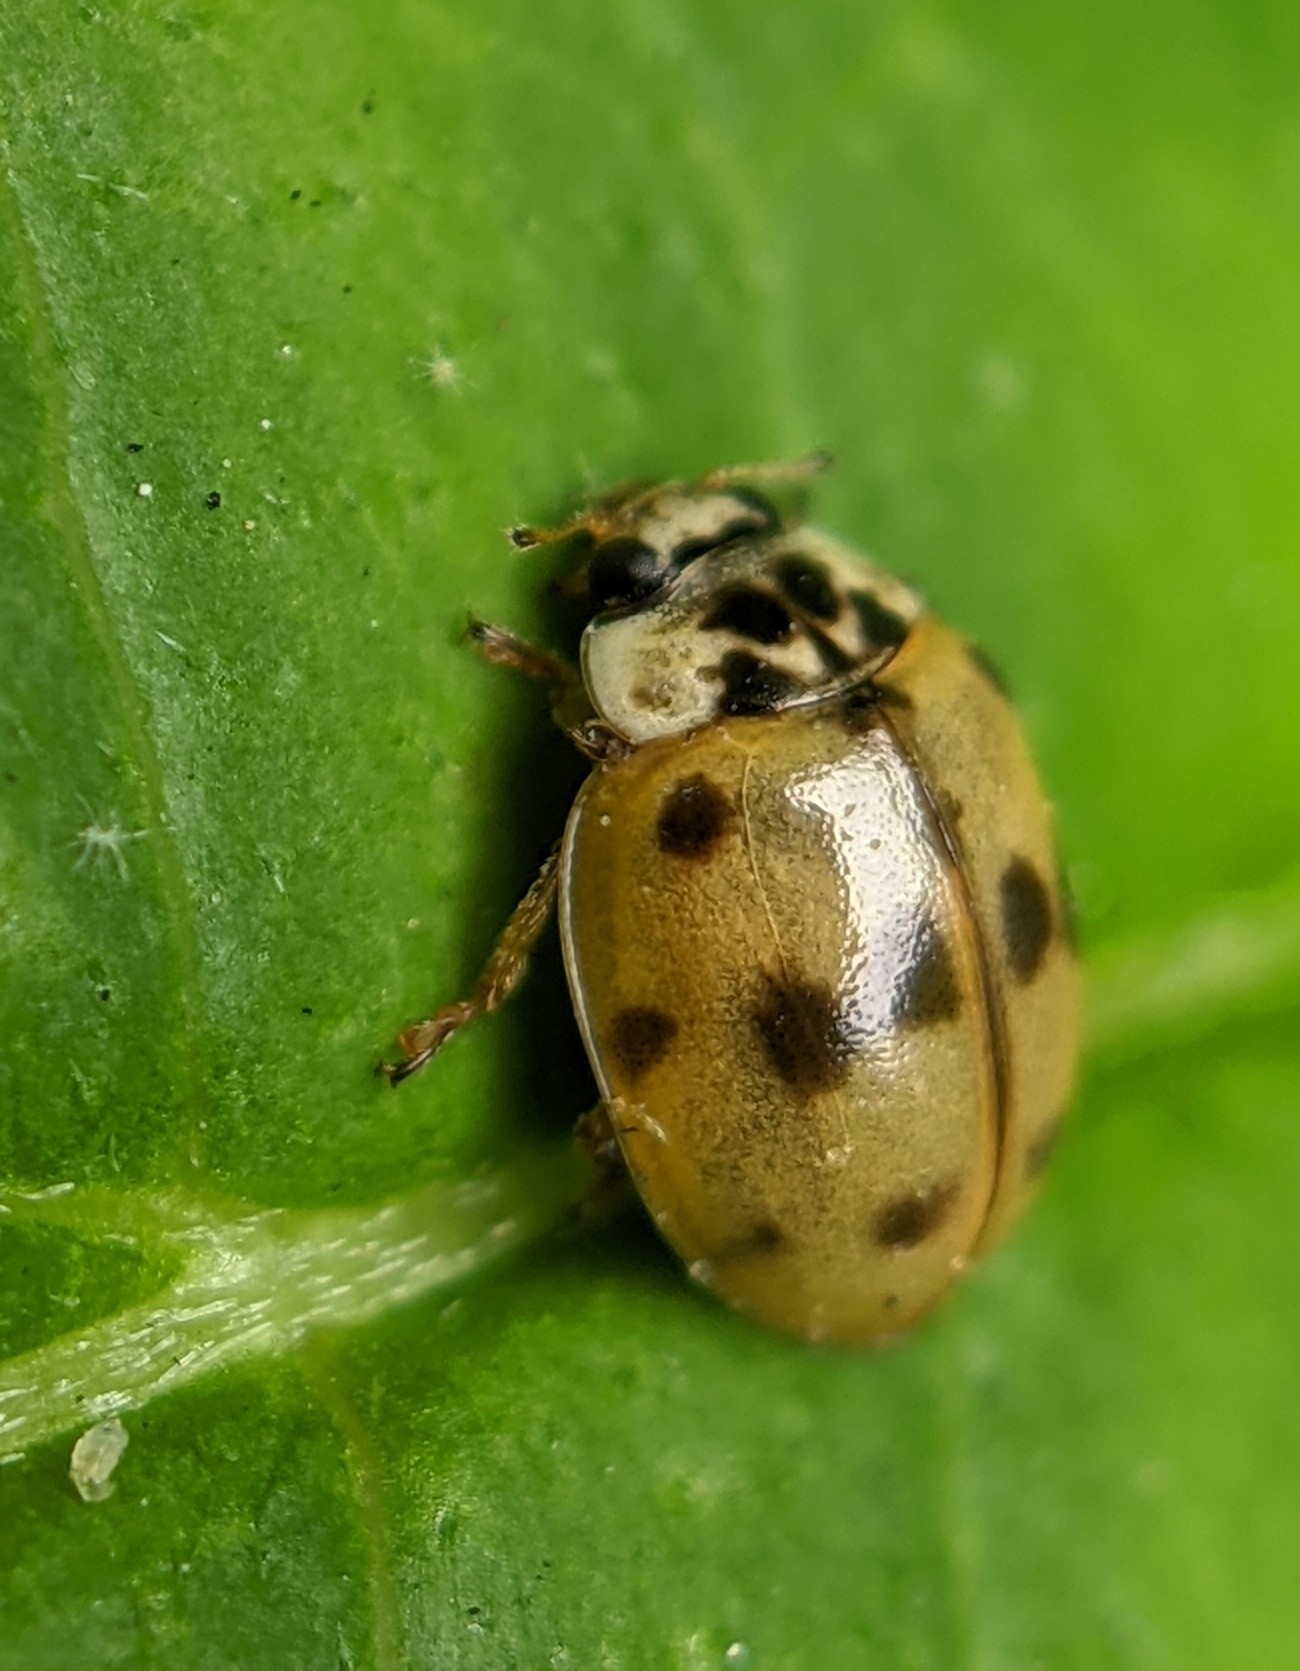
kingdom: Animalia
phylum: Arthropoda
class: Insecta
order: Coleoptera
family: Coccinellidae
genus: Adalia
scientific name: Adalia decempunctata
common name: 10-spot ladybird
